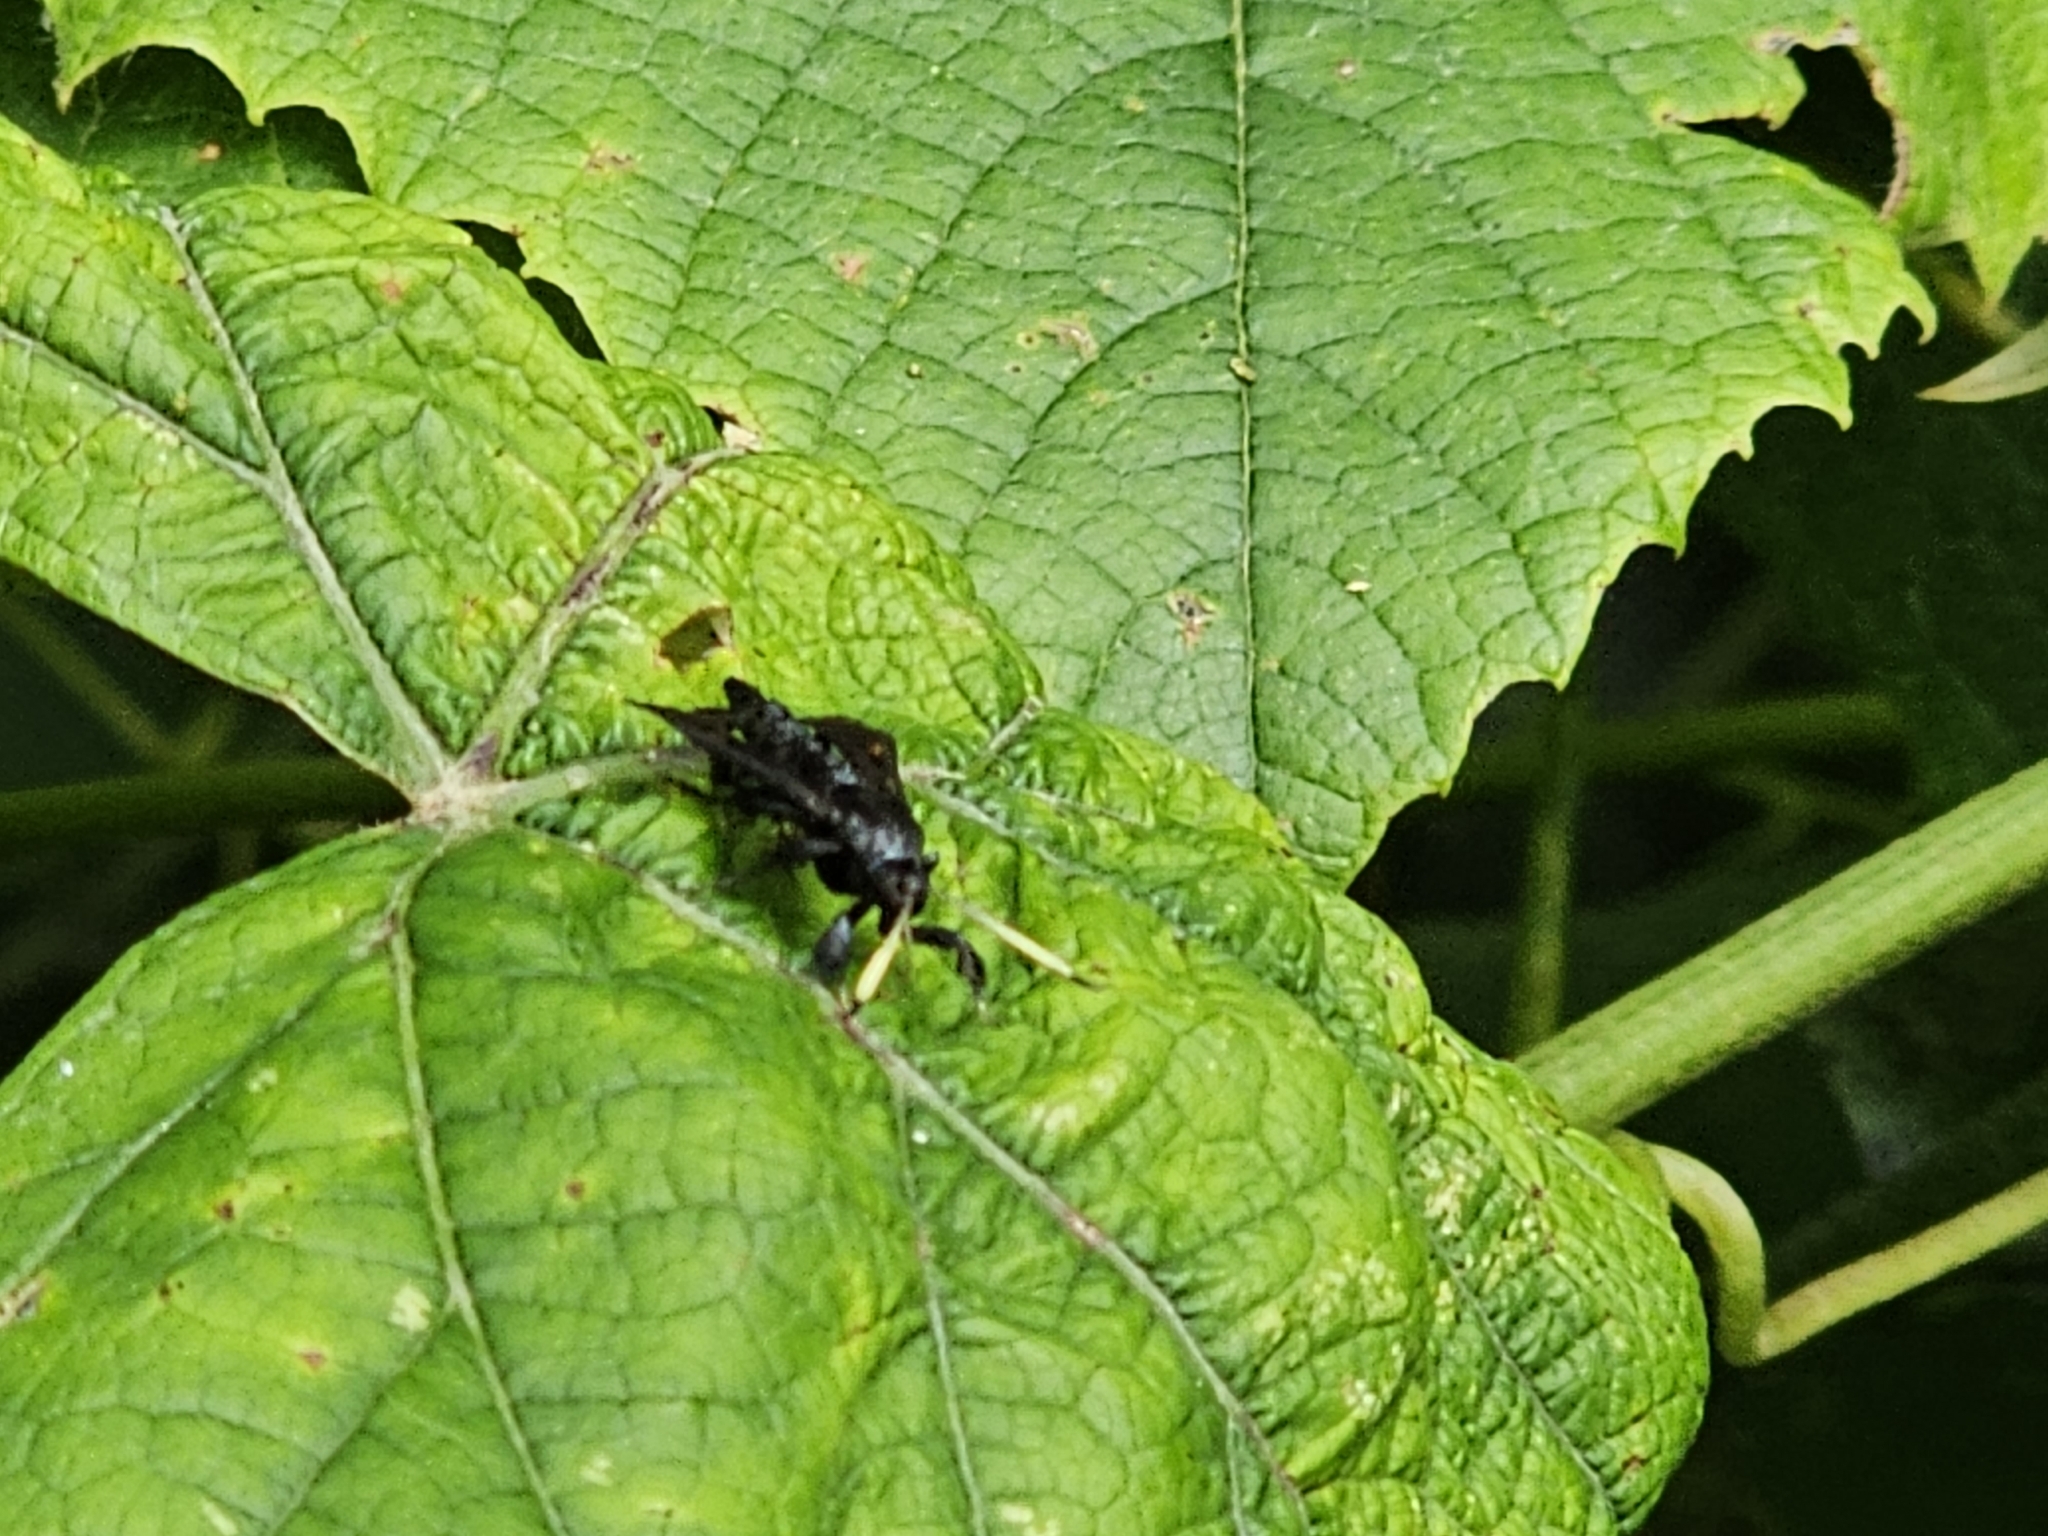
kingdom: Animalia
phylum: Arthropoda
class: Insecta
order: Lepidoptera
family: Sesiidae
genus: Albuna
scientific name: Albuna fraxini
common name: Virginia creeper clearwing
